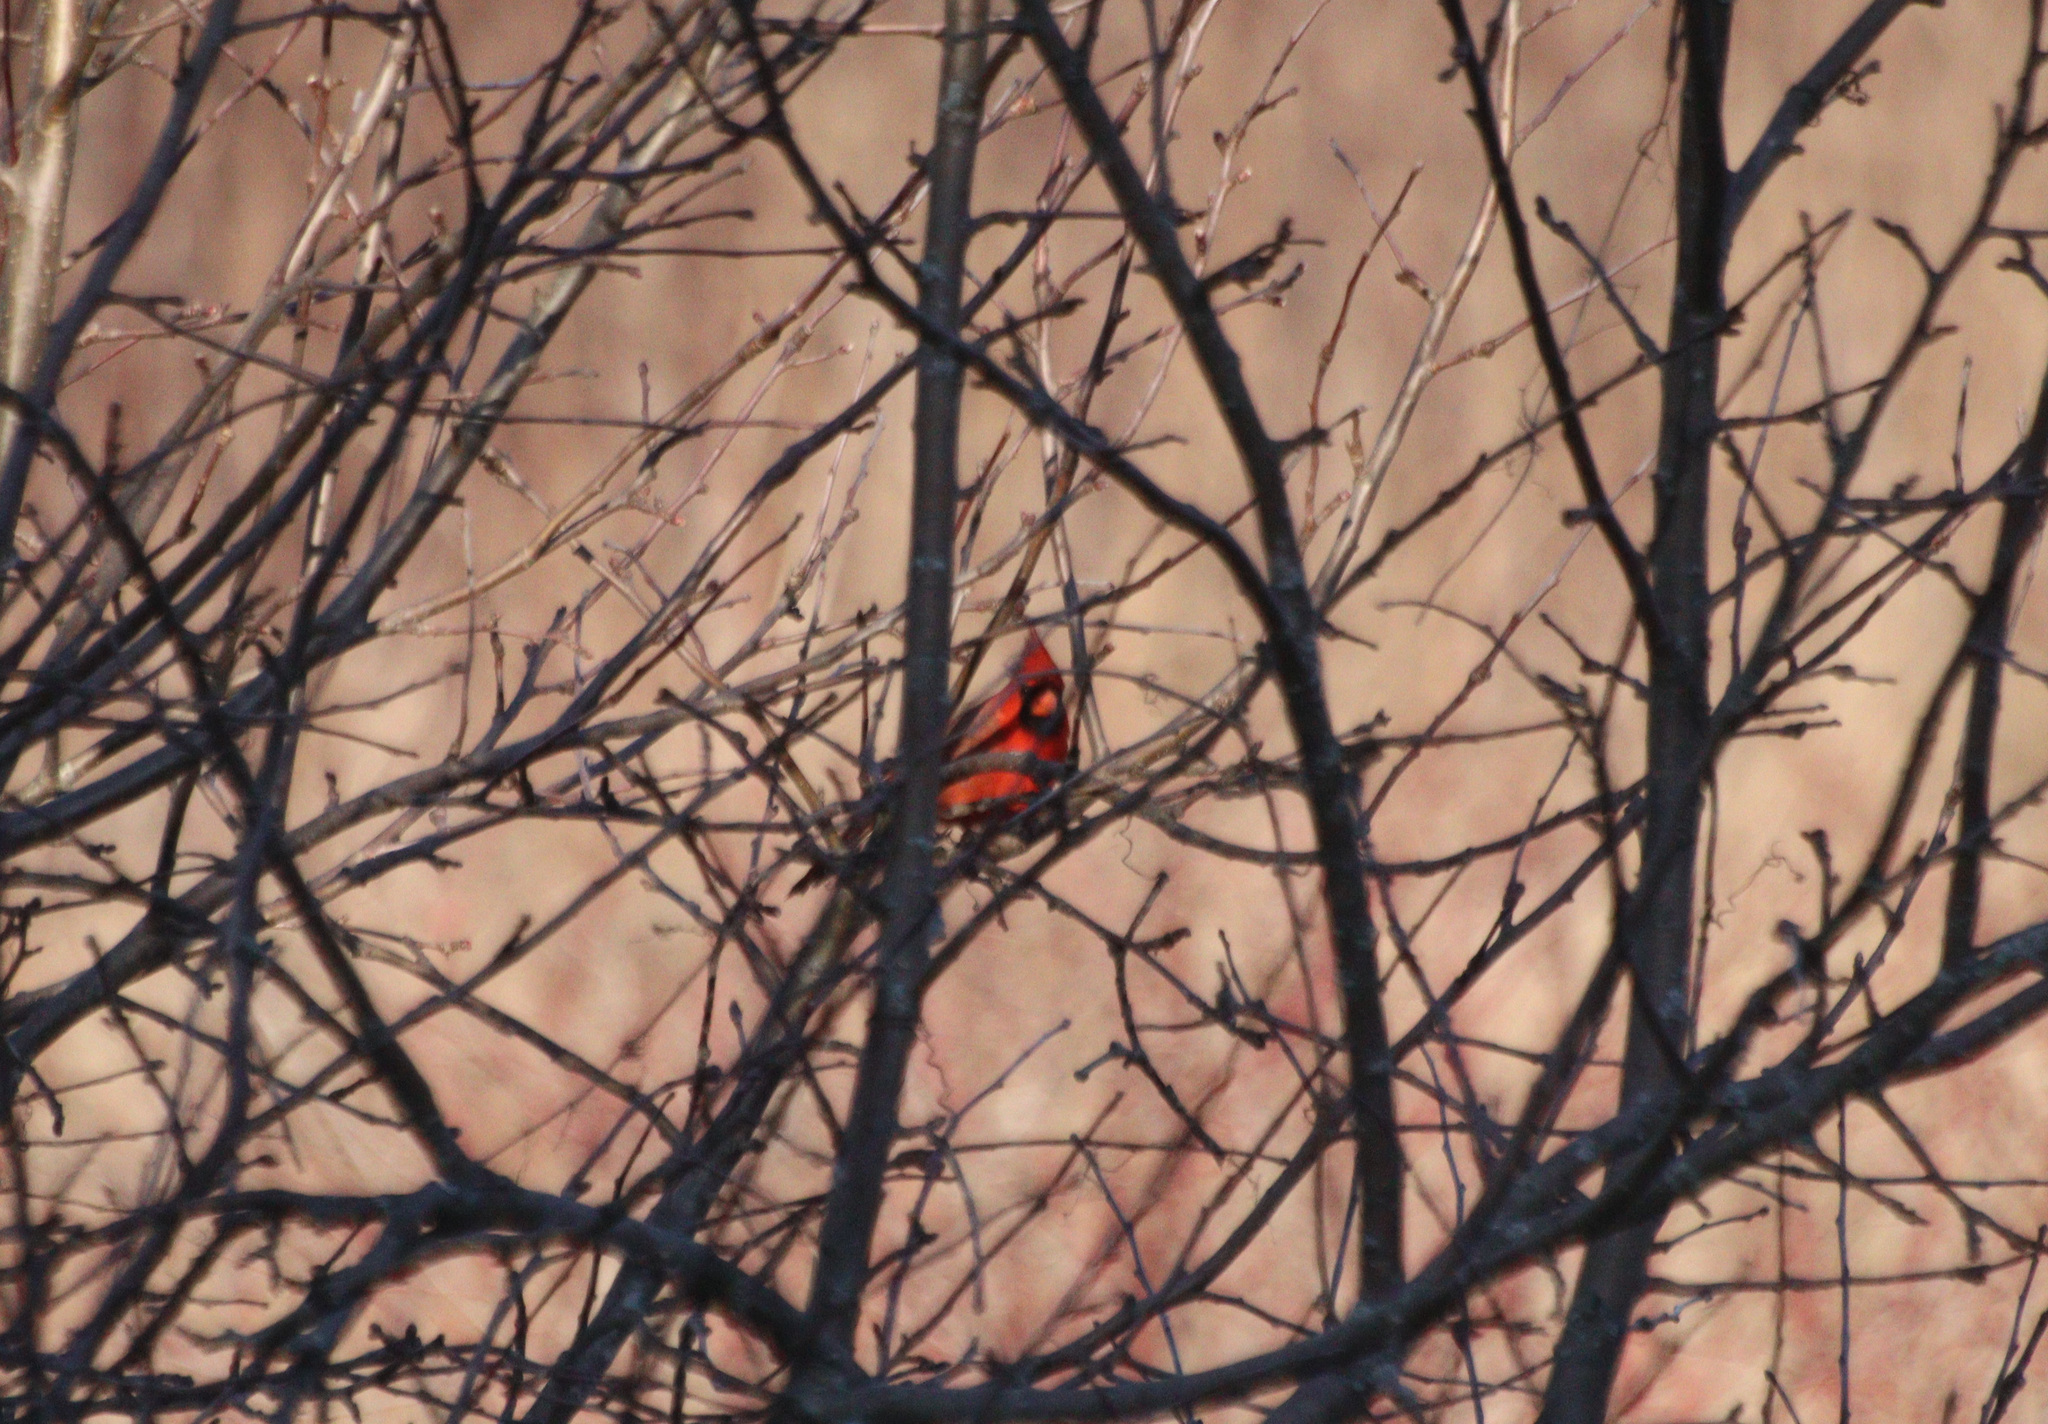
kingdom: Animalia
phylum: Chordata
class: Aves
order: Passeriformes
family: Cardinalidae
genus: Cardinalis
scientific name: Cardinalis cardinalis
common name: Northern cardinal
